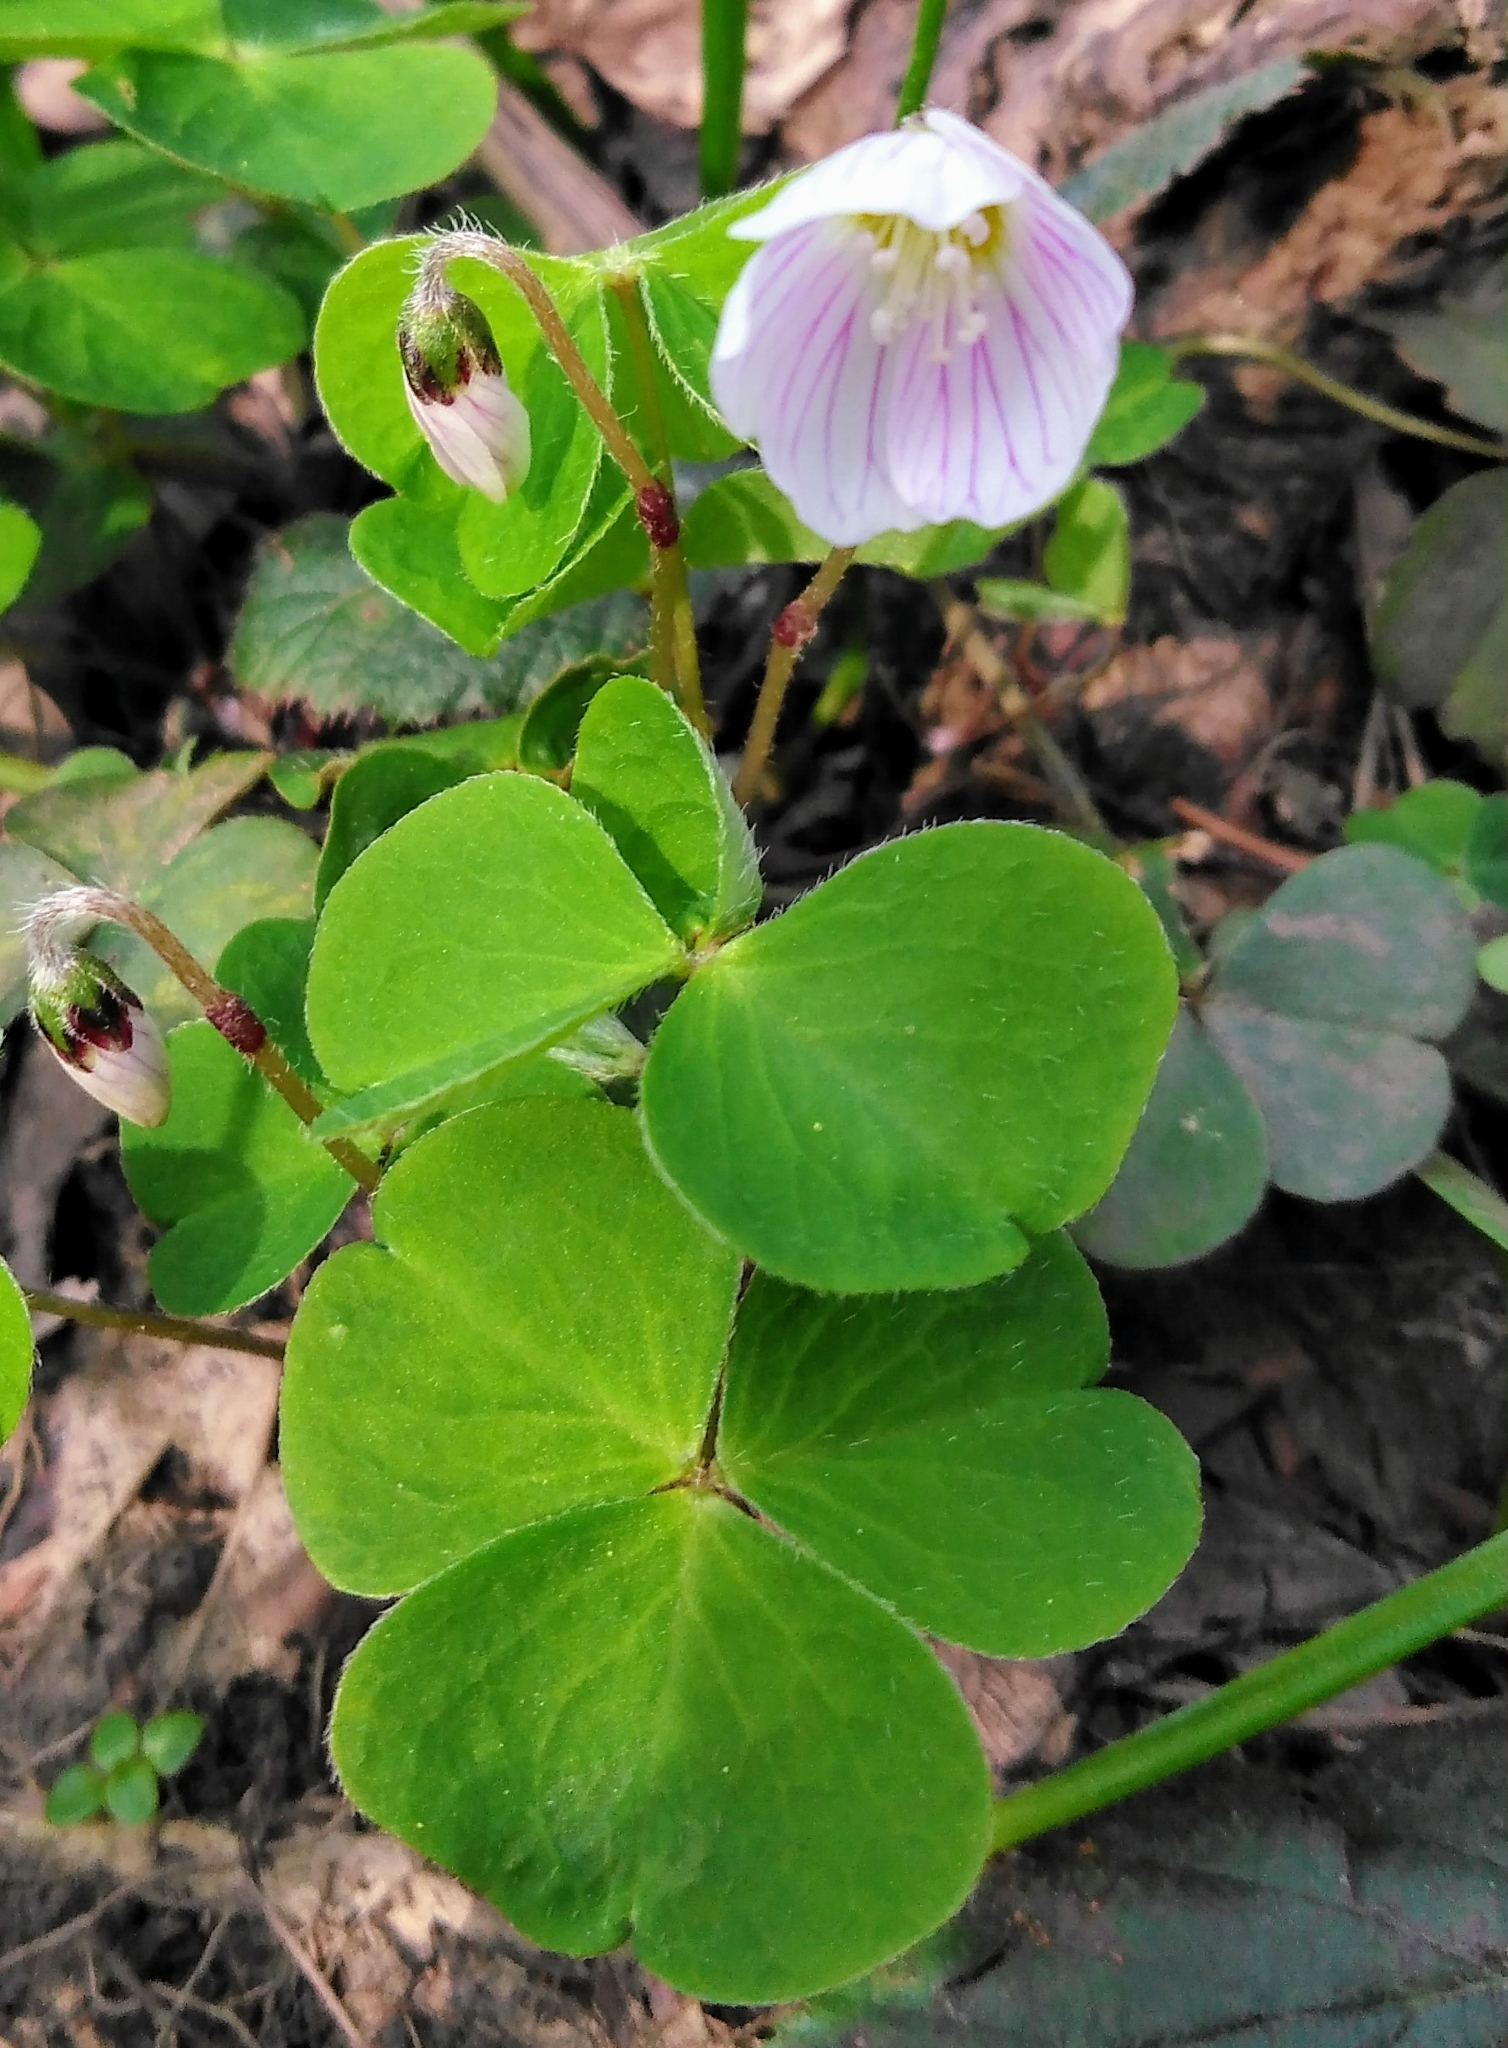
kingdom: Plantae
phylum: Tracheophyta
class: Magnoliopsida
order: Oxalidales
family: Oxalidaceae
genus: Oxalis
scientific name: Oxalis acetosella
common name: Wood-sorrel
